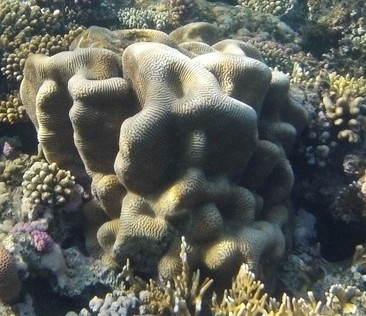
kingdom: Animalia
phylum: Cnidaria
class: Anthozoa
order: Scleractinia
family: Merulinidae
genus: Leptoria
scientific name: Leptoria phrygia
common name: Least valley coral
